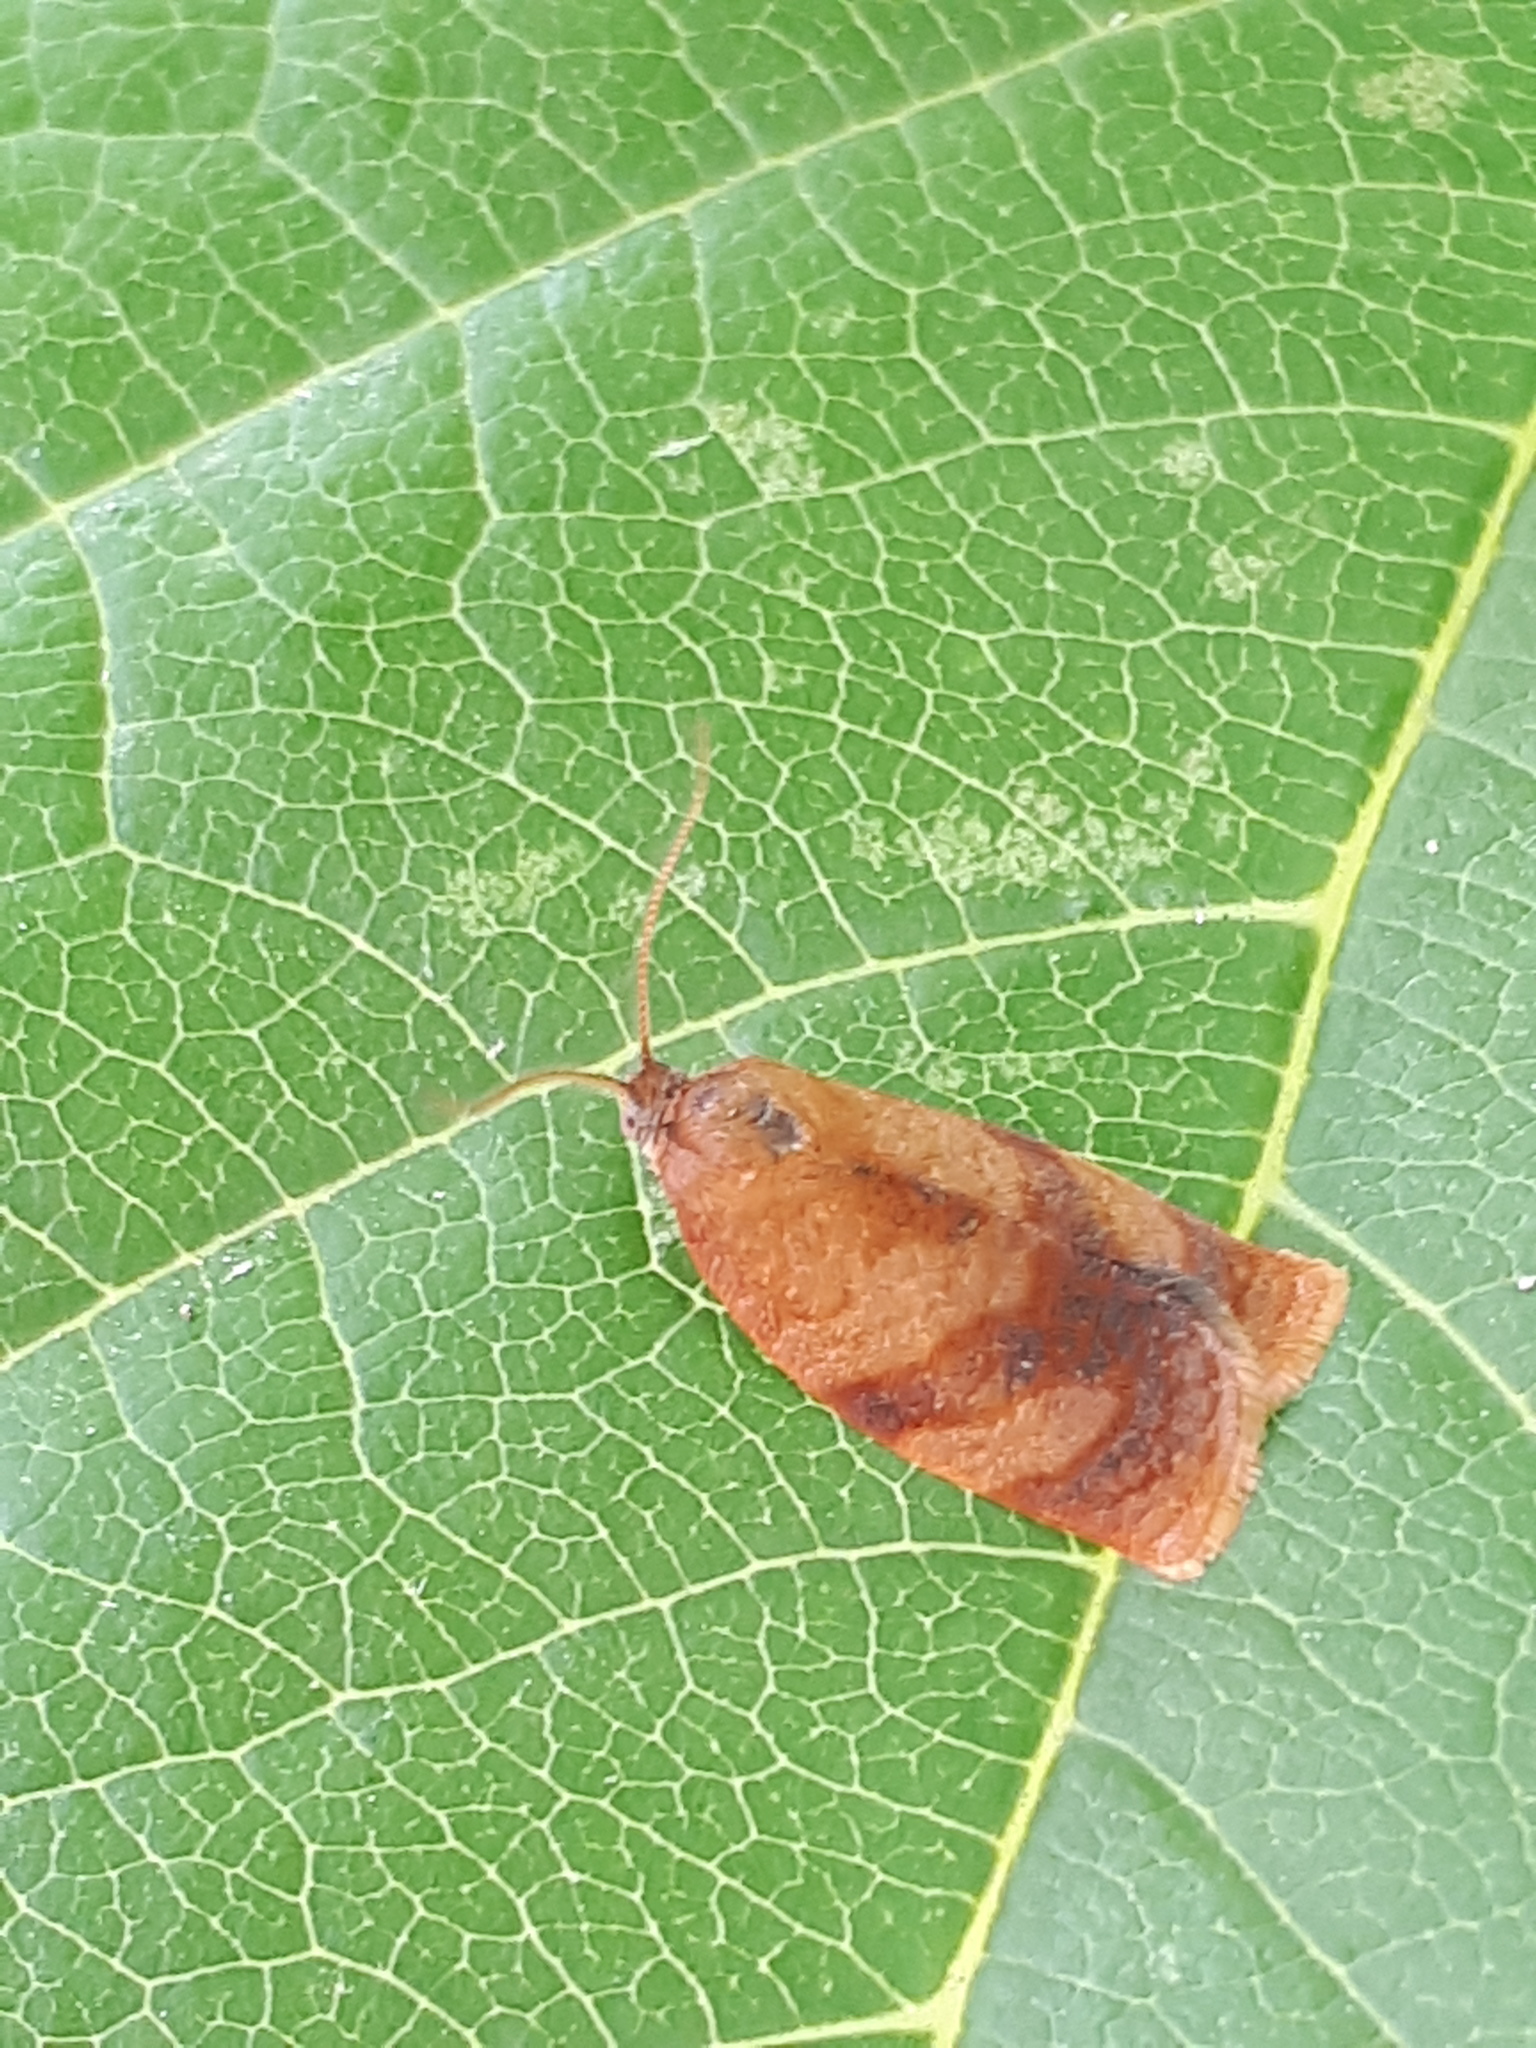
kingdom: Animalia
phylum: Arthropoda
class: Insecta
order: Lepidoptera
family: Tortricidae
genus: Cacoecimorpha
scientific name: Cacoecimorpha pronubana
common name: Carnation tortrix
